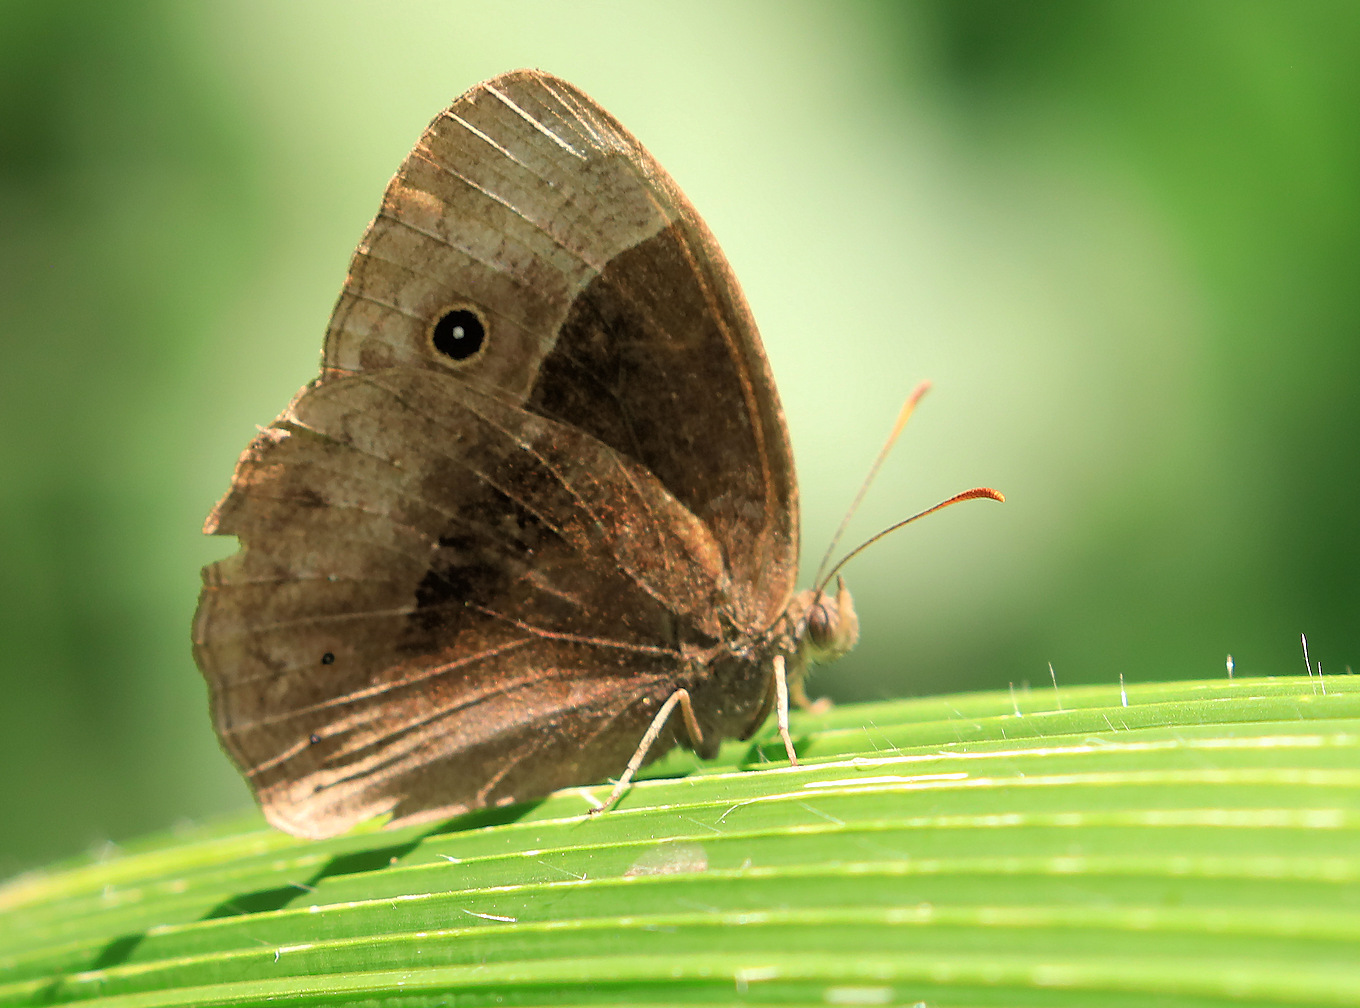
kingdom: Animalia
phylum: Arthropoda
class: Insecta
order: Lepidoptera
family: Nymphalidae
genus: Mycalesis
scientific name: Mycalesis rhacotis
